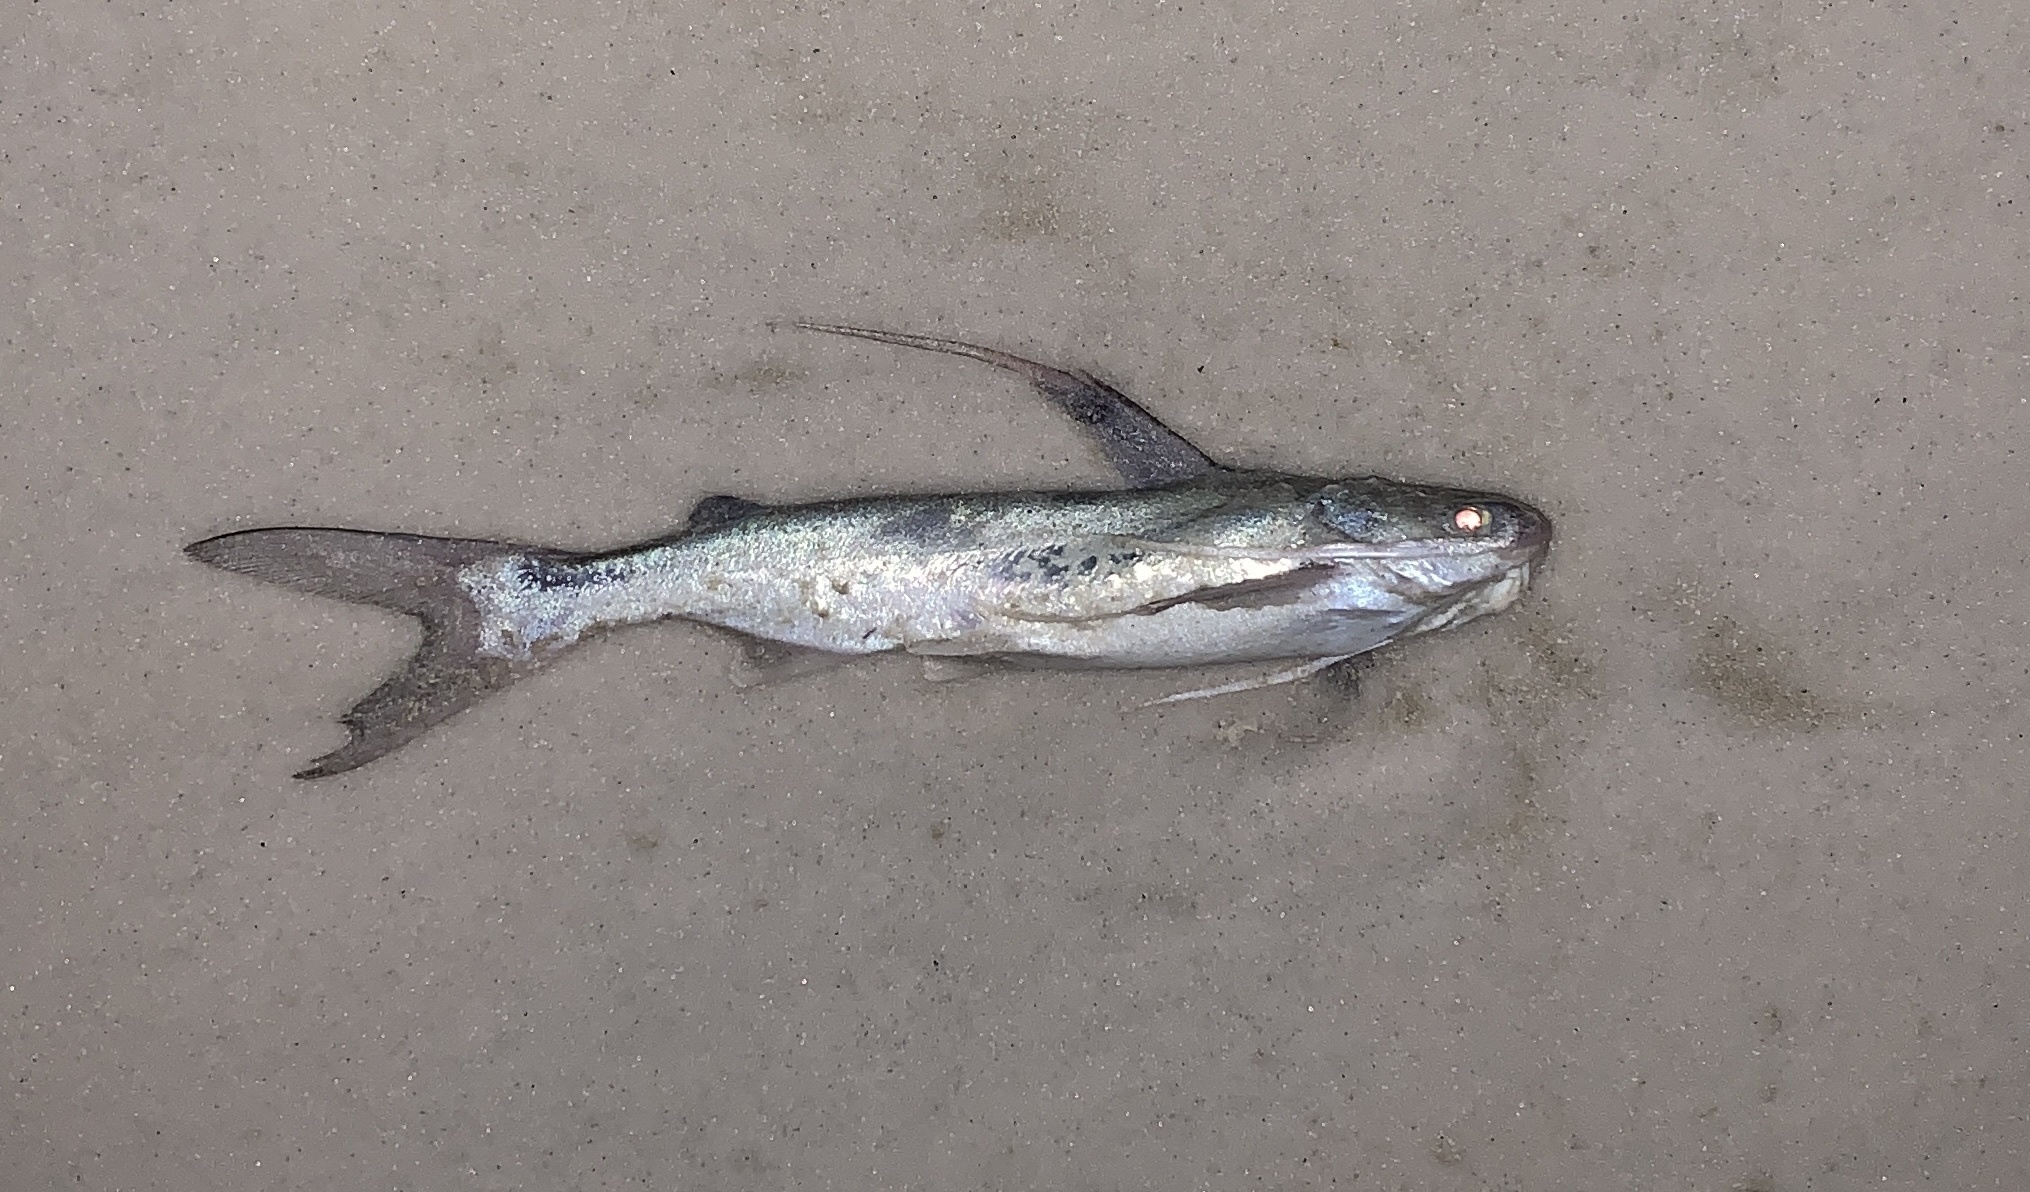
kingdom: Animalia
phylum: Chordata
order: Siluriformes
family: Ariidae
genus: Bagre
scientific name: Bagre marinus
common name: Gafftopsail sea catfish
